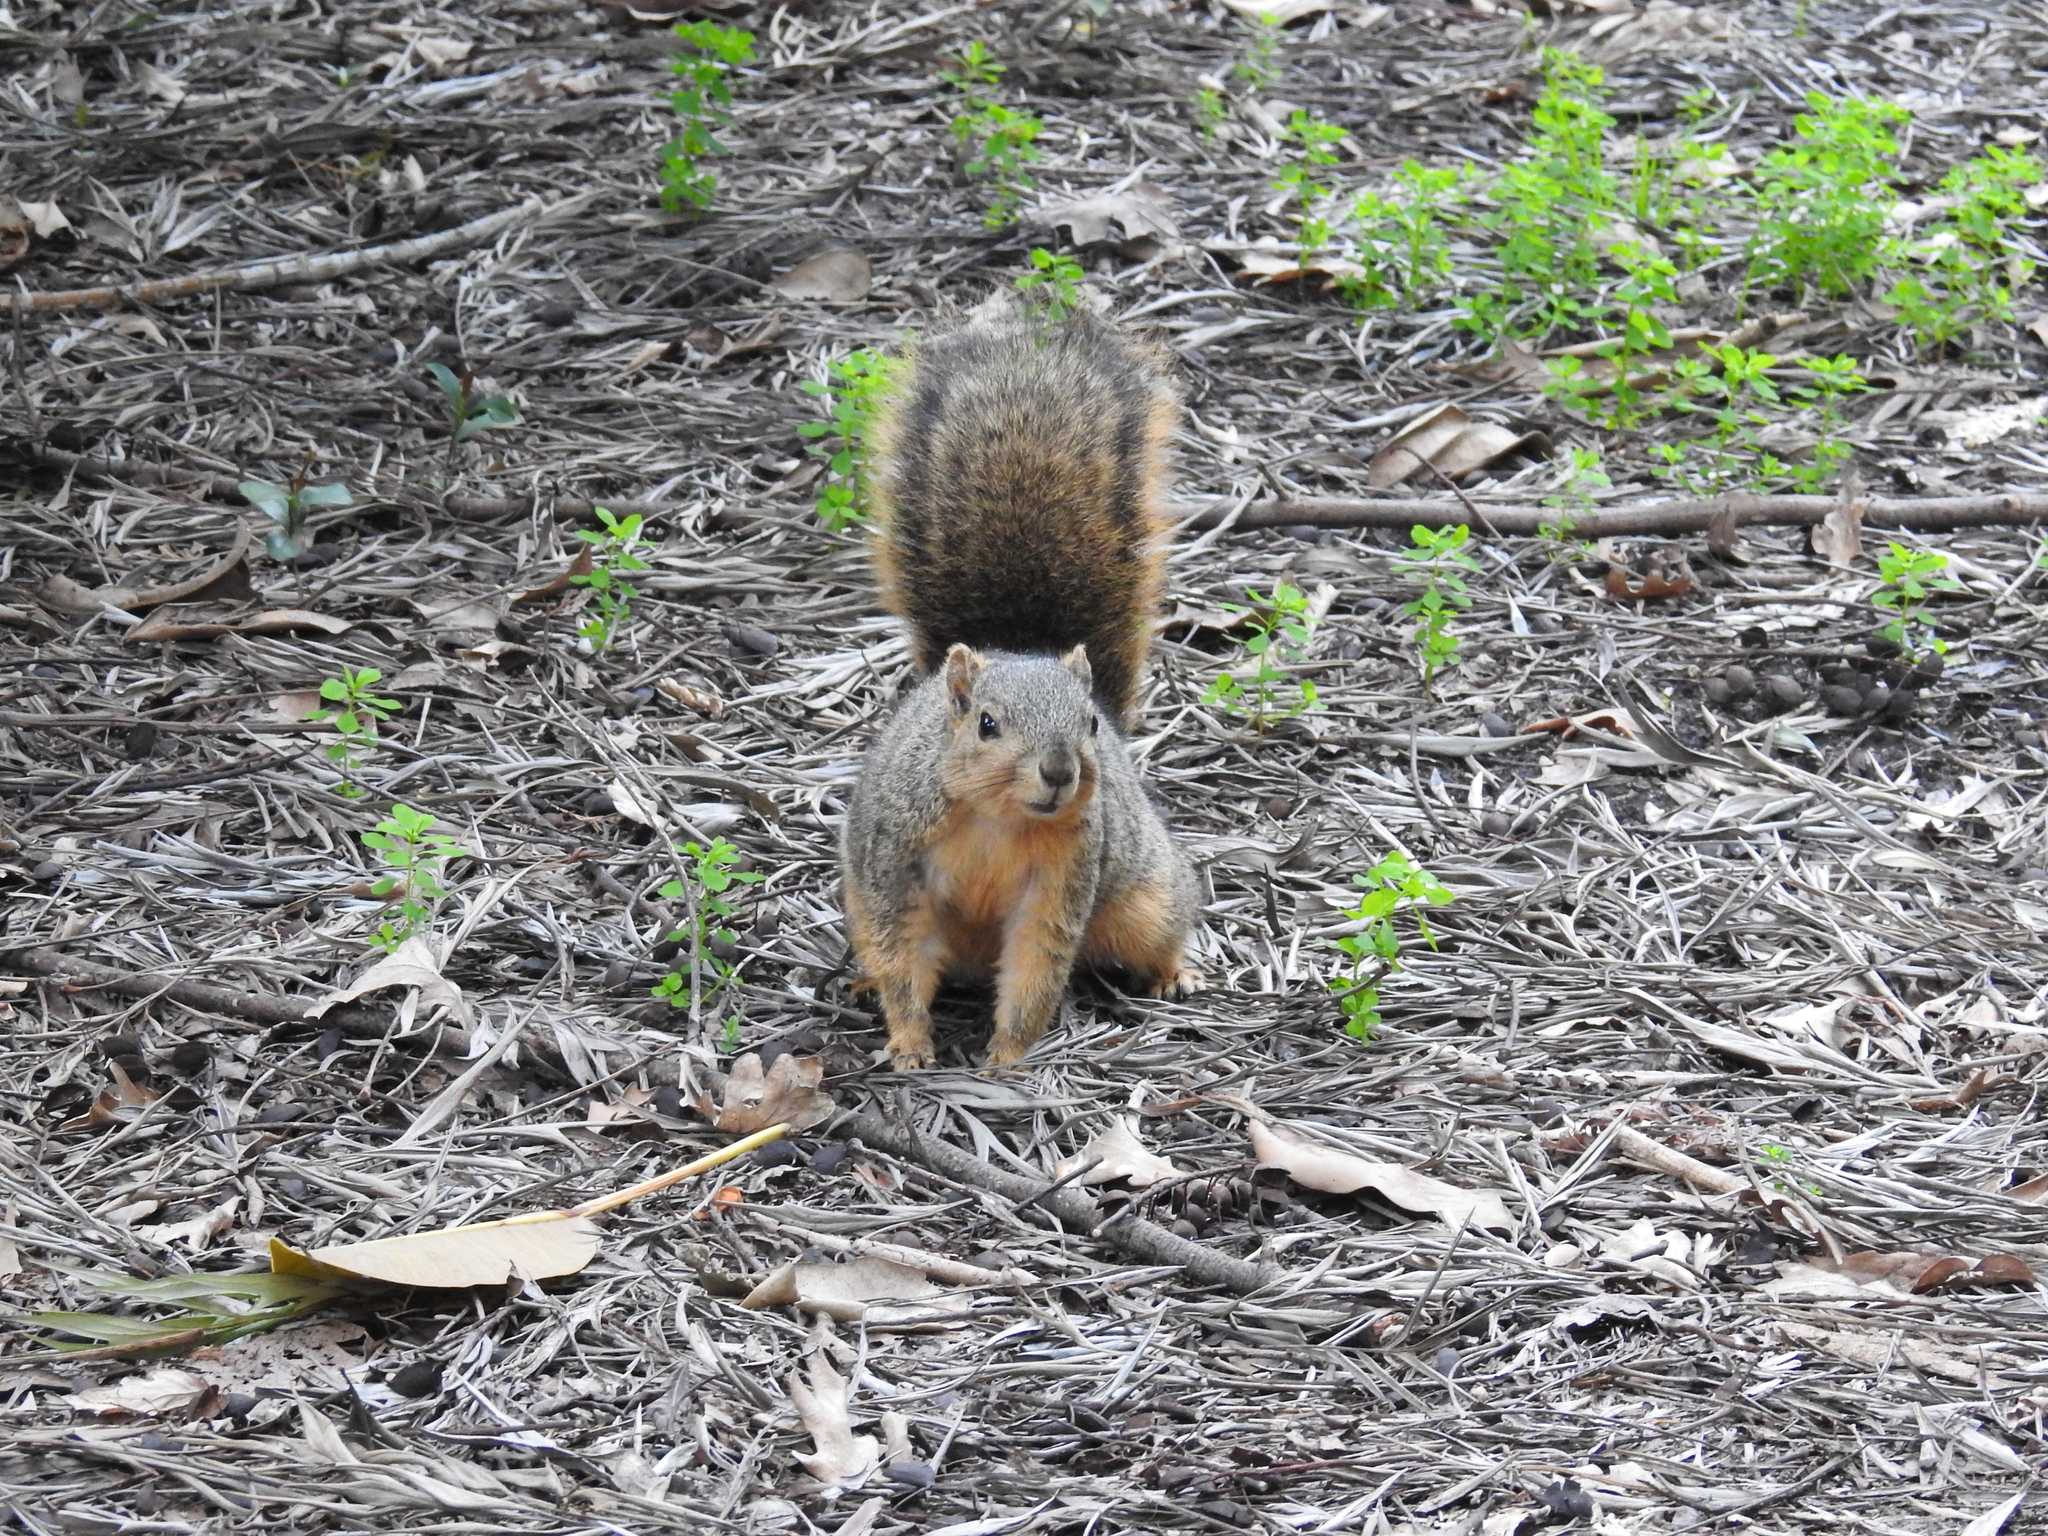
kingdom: Animalia
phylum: Chordata
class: Mammalia
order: Rodentia
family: Sciuridae
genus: Sciurus
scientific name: Sciurus niger
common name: Fox squirrel
